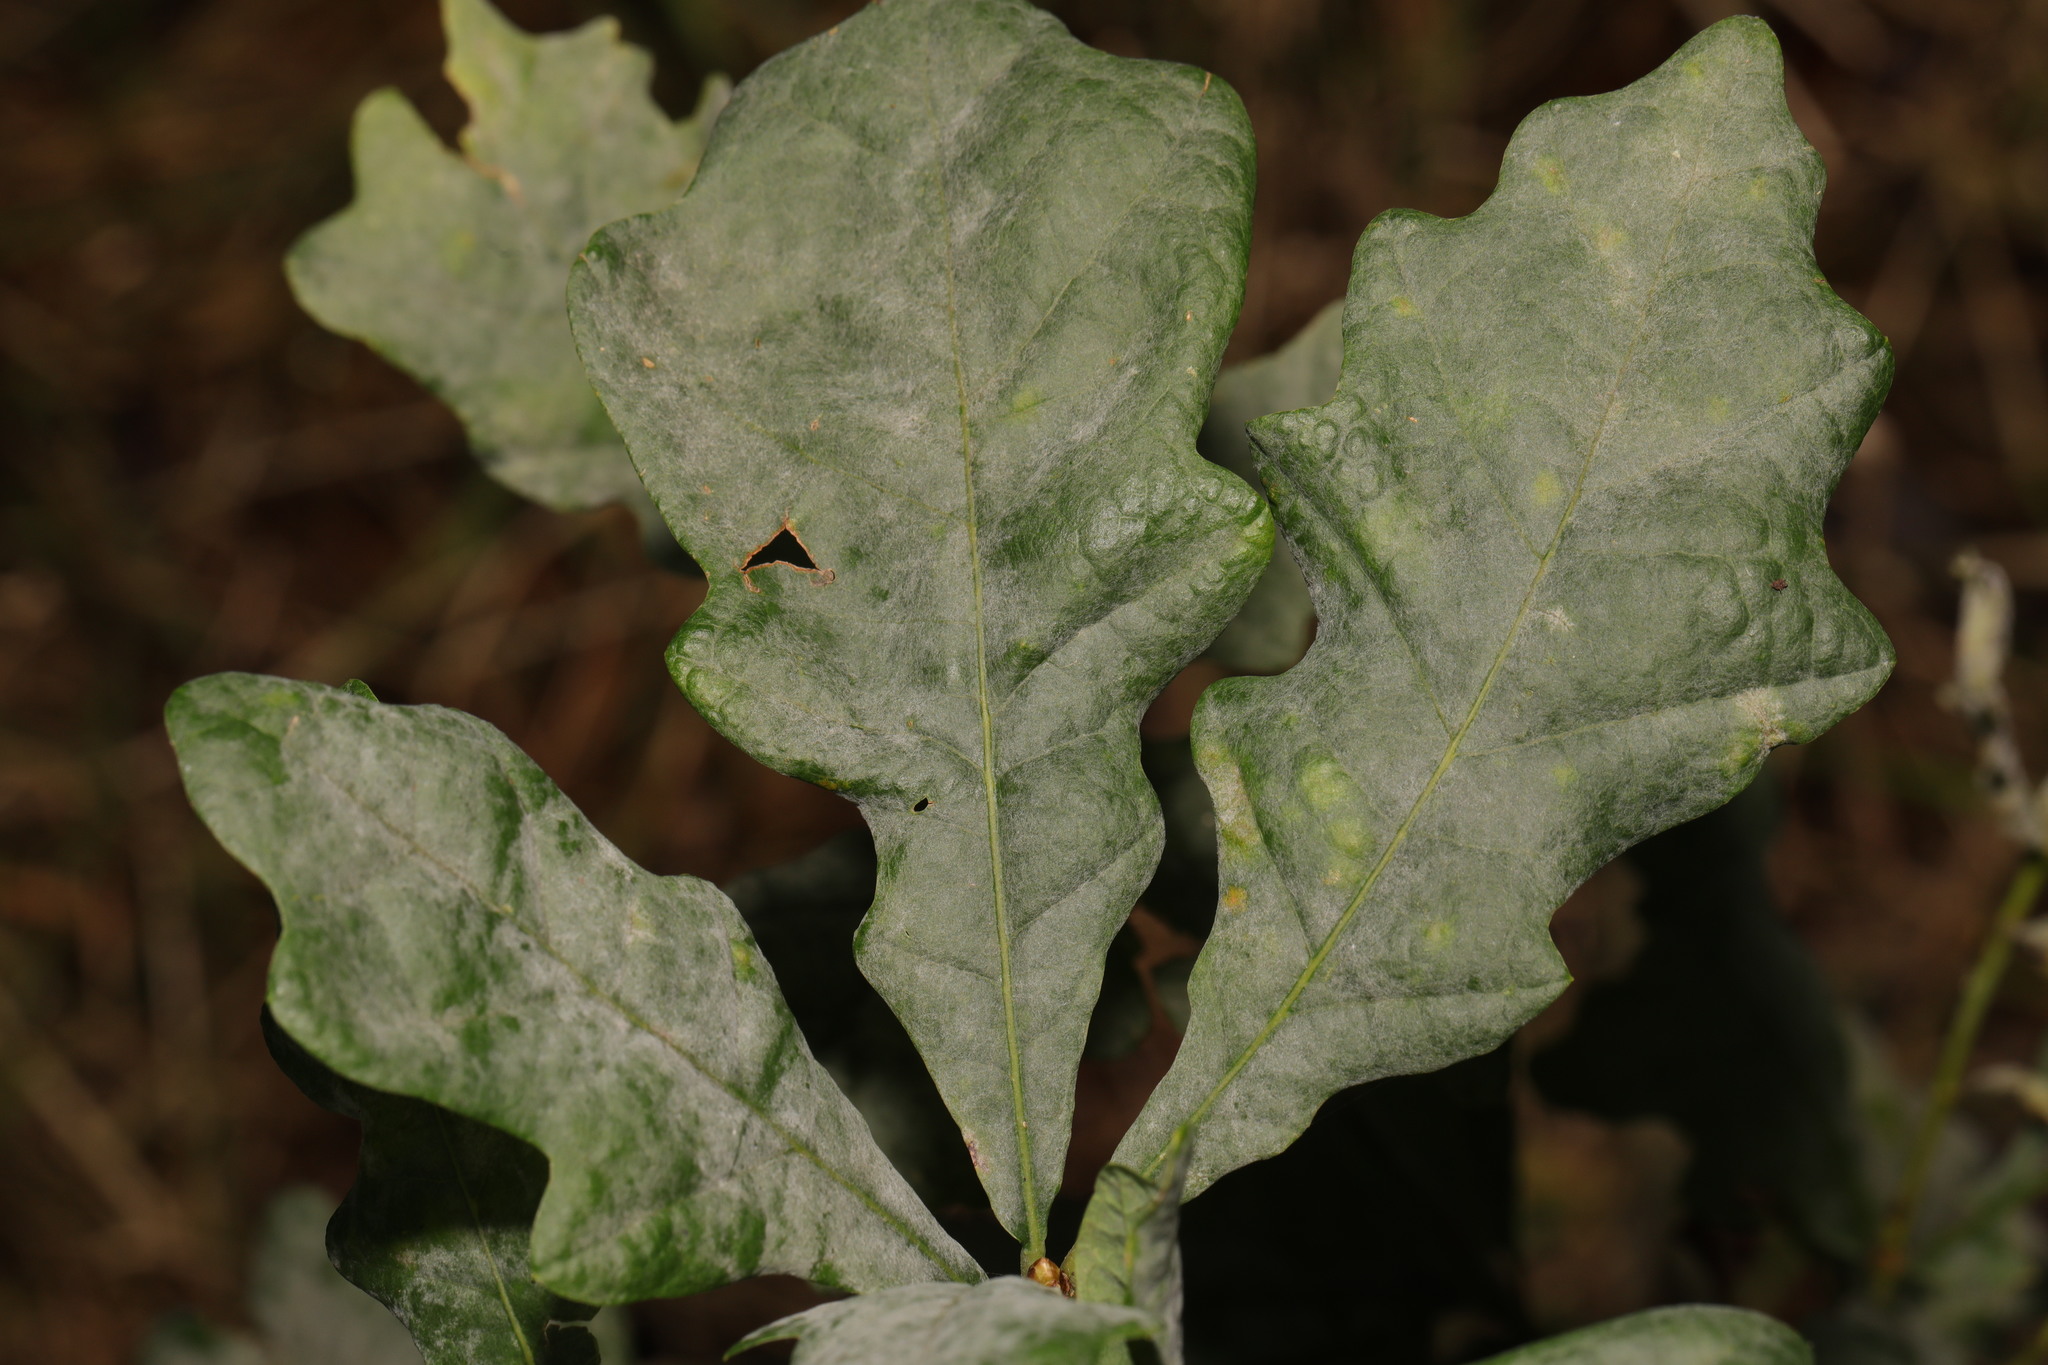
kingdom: Fungi
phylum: Ascomycota
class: Leotiomycetes
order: Helotiales
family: Erysiphaceae
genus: Erysiphe
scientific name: Erysiphe alphitoides
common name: Oak mildew
